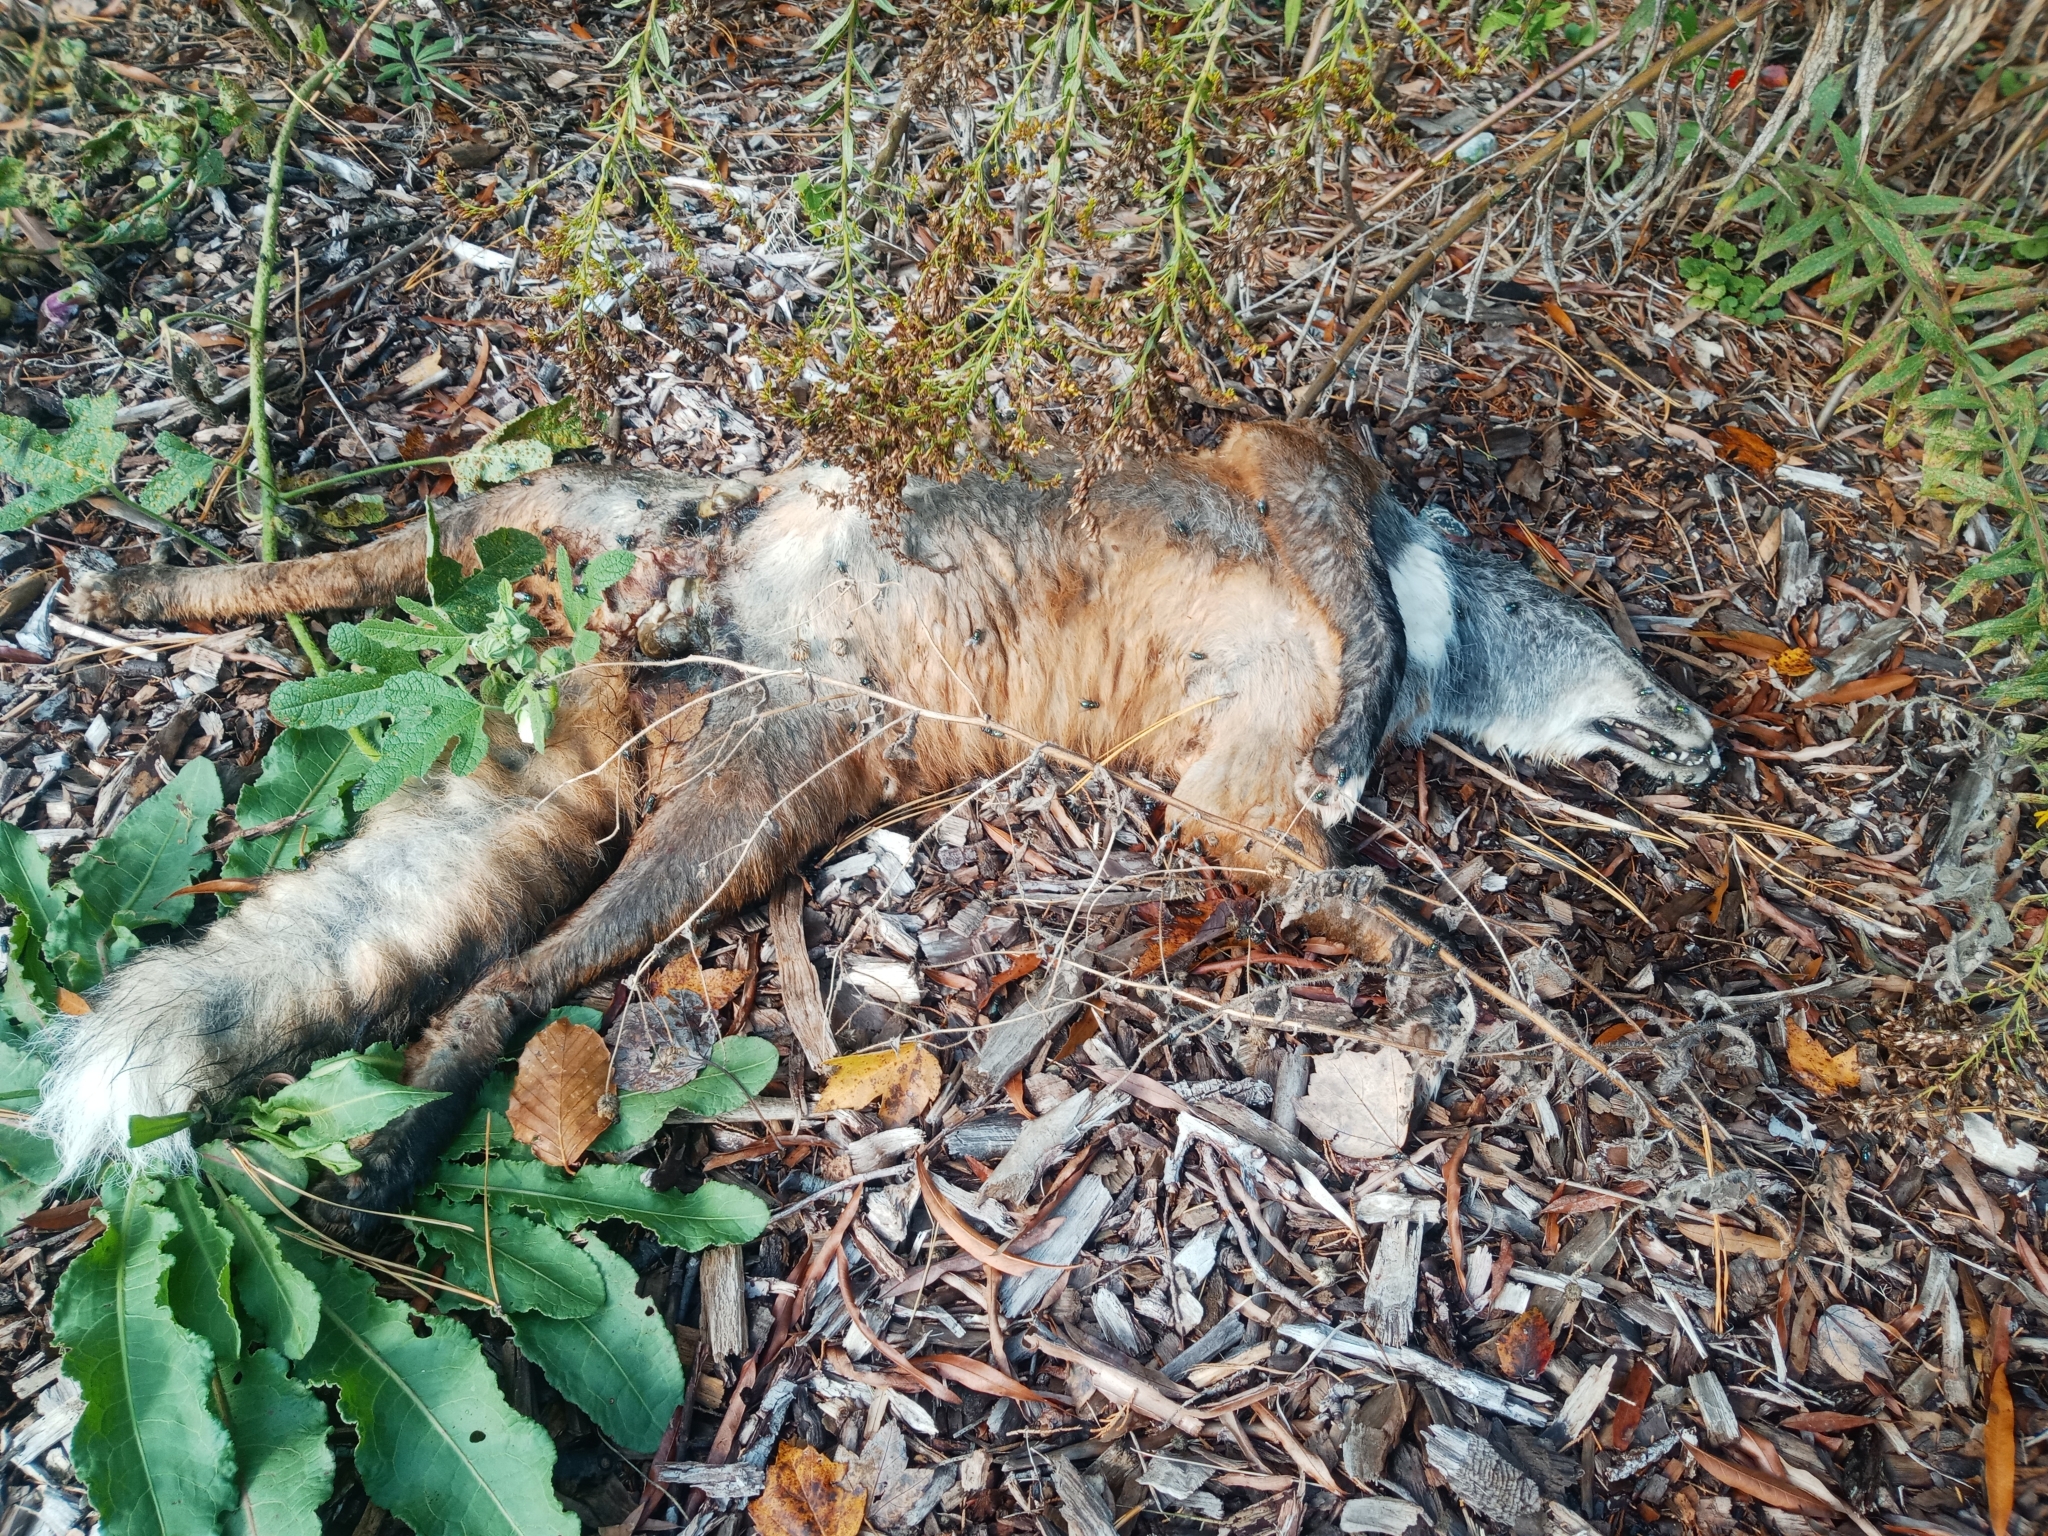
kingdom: Animalia
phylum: Chordata
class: Mammalia
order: Carnivora
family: Canidae
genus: Vulpes
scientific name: Vulpes vulpes
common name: Red fox
